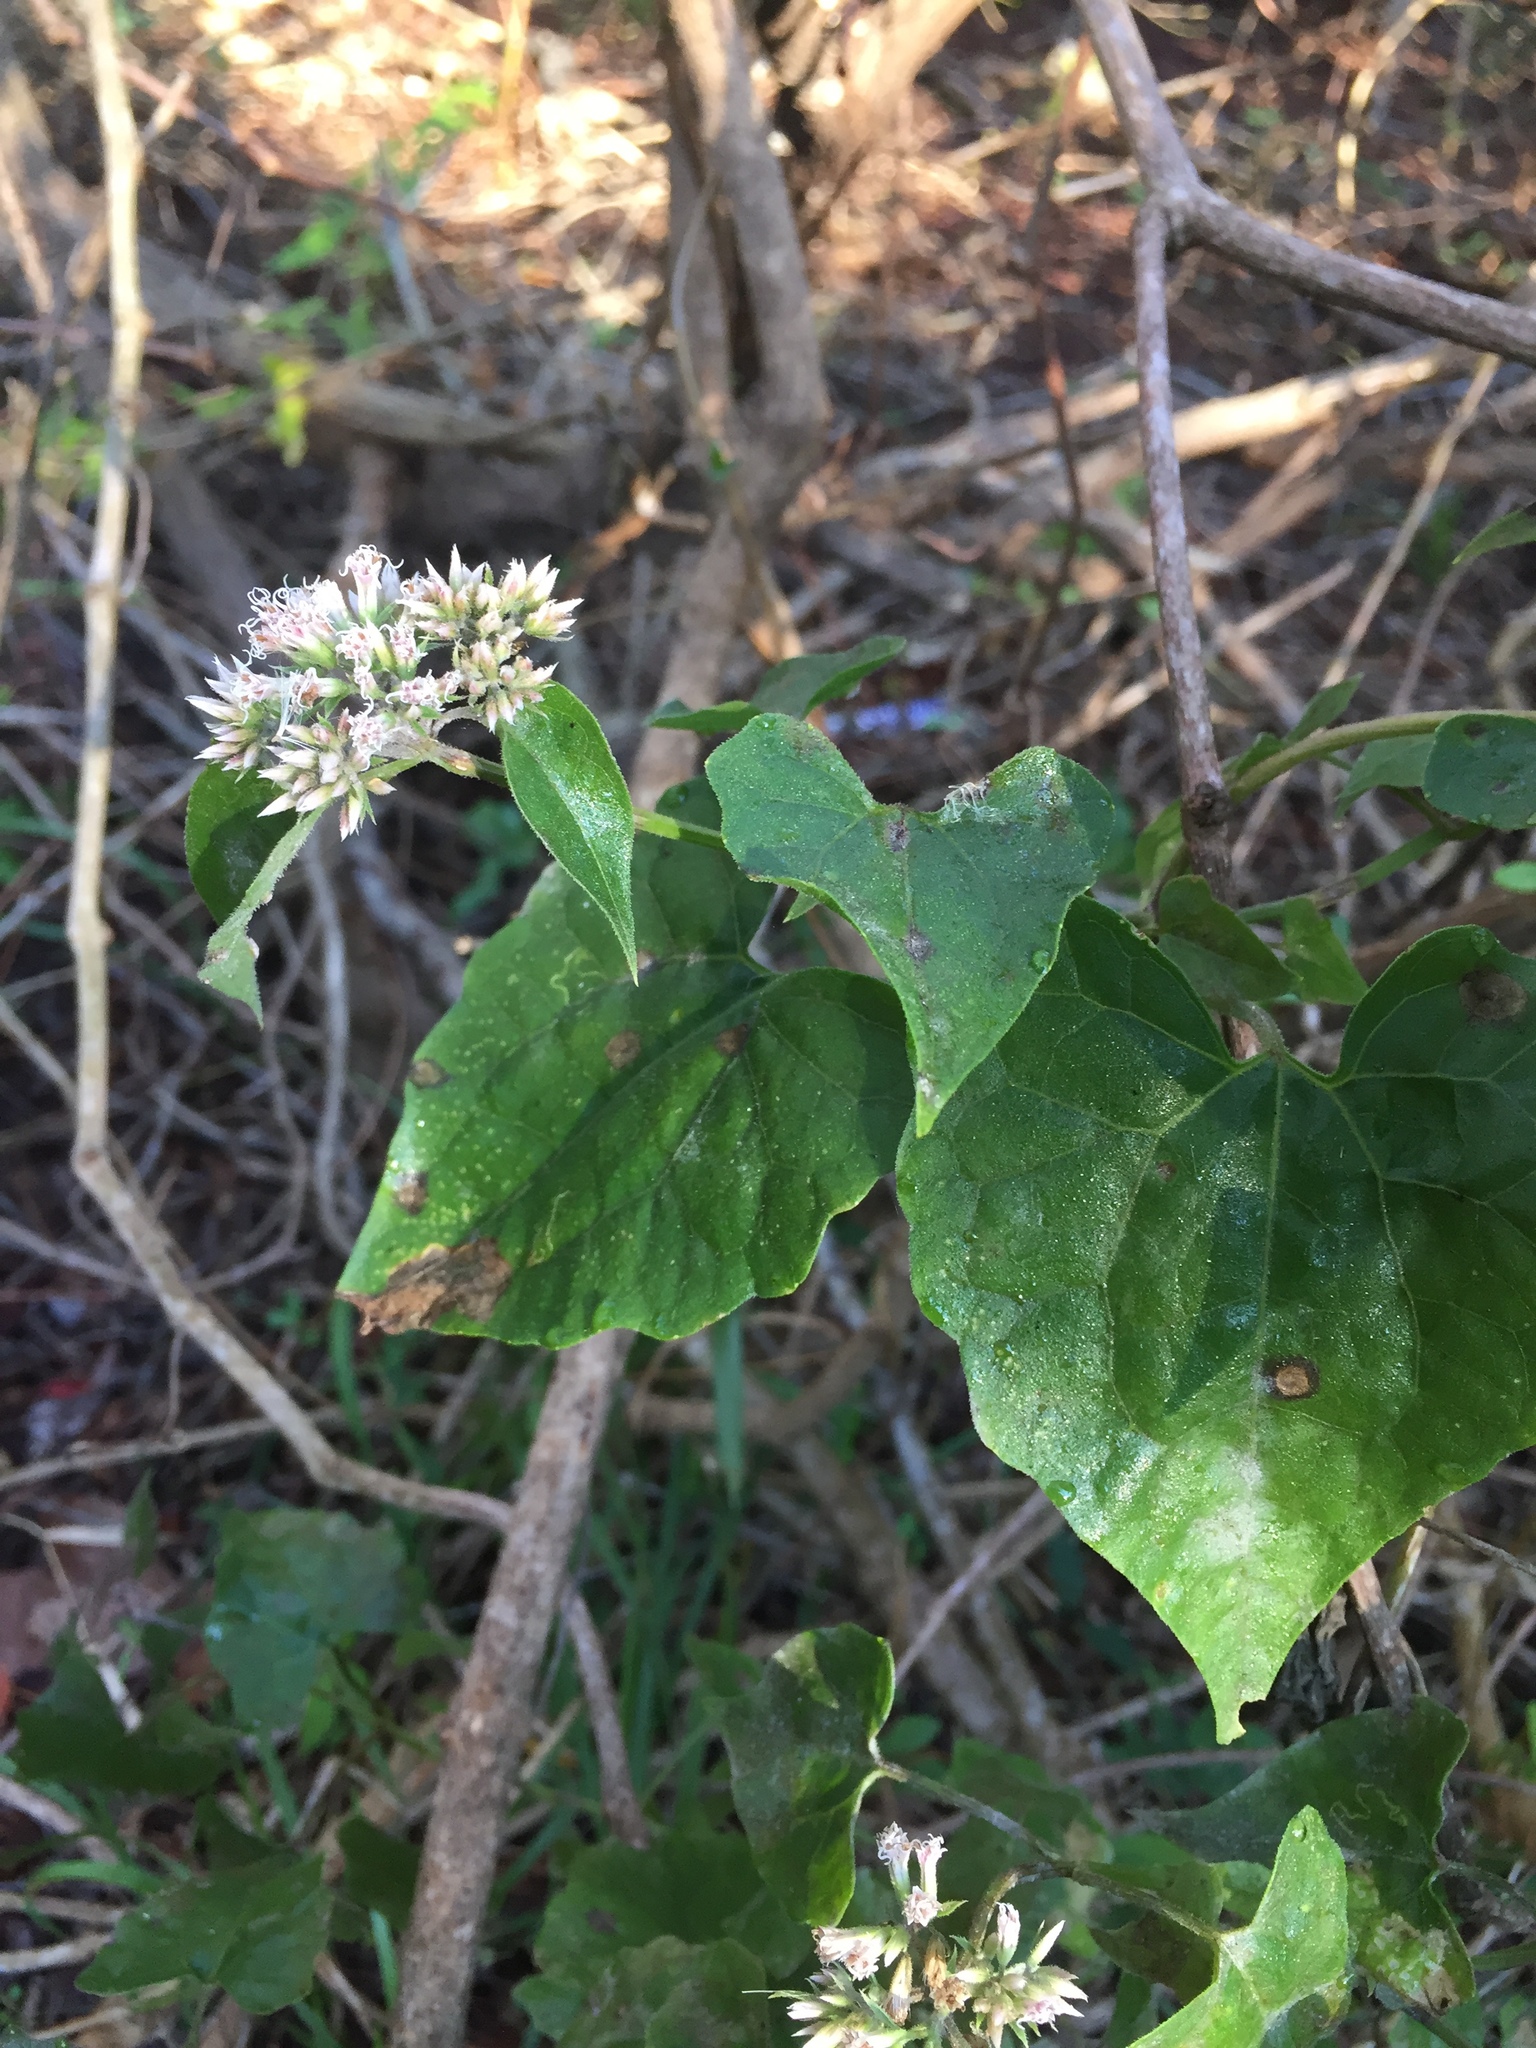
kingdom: Plantae
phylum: Tracheophyta
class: Magnoliopsida
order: Asterales
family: Asteraceae
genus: Mikania
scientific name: Mikania scandens
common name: Climbing hempvine
